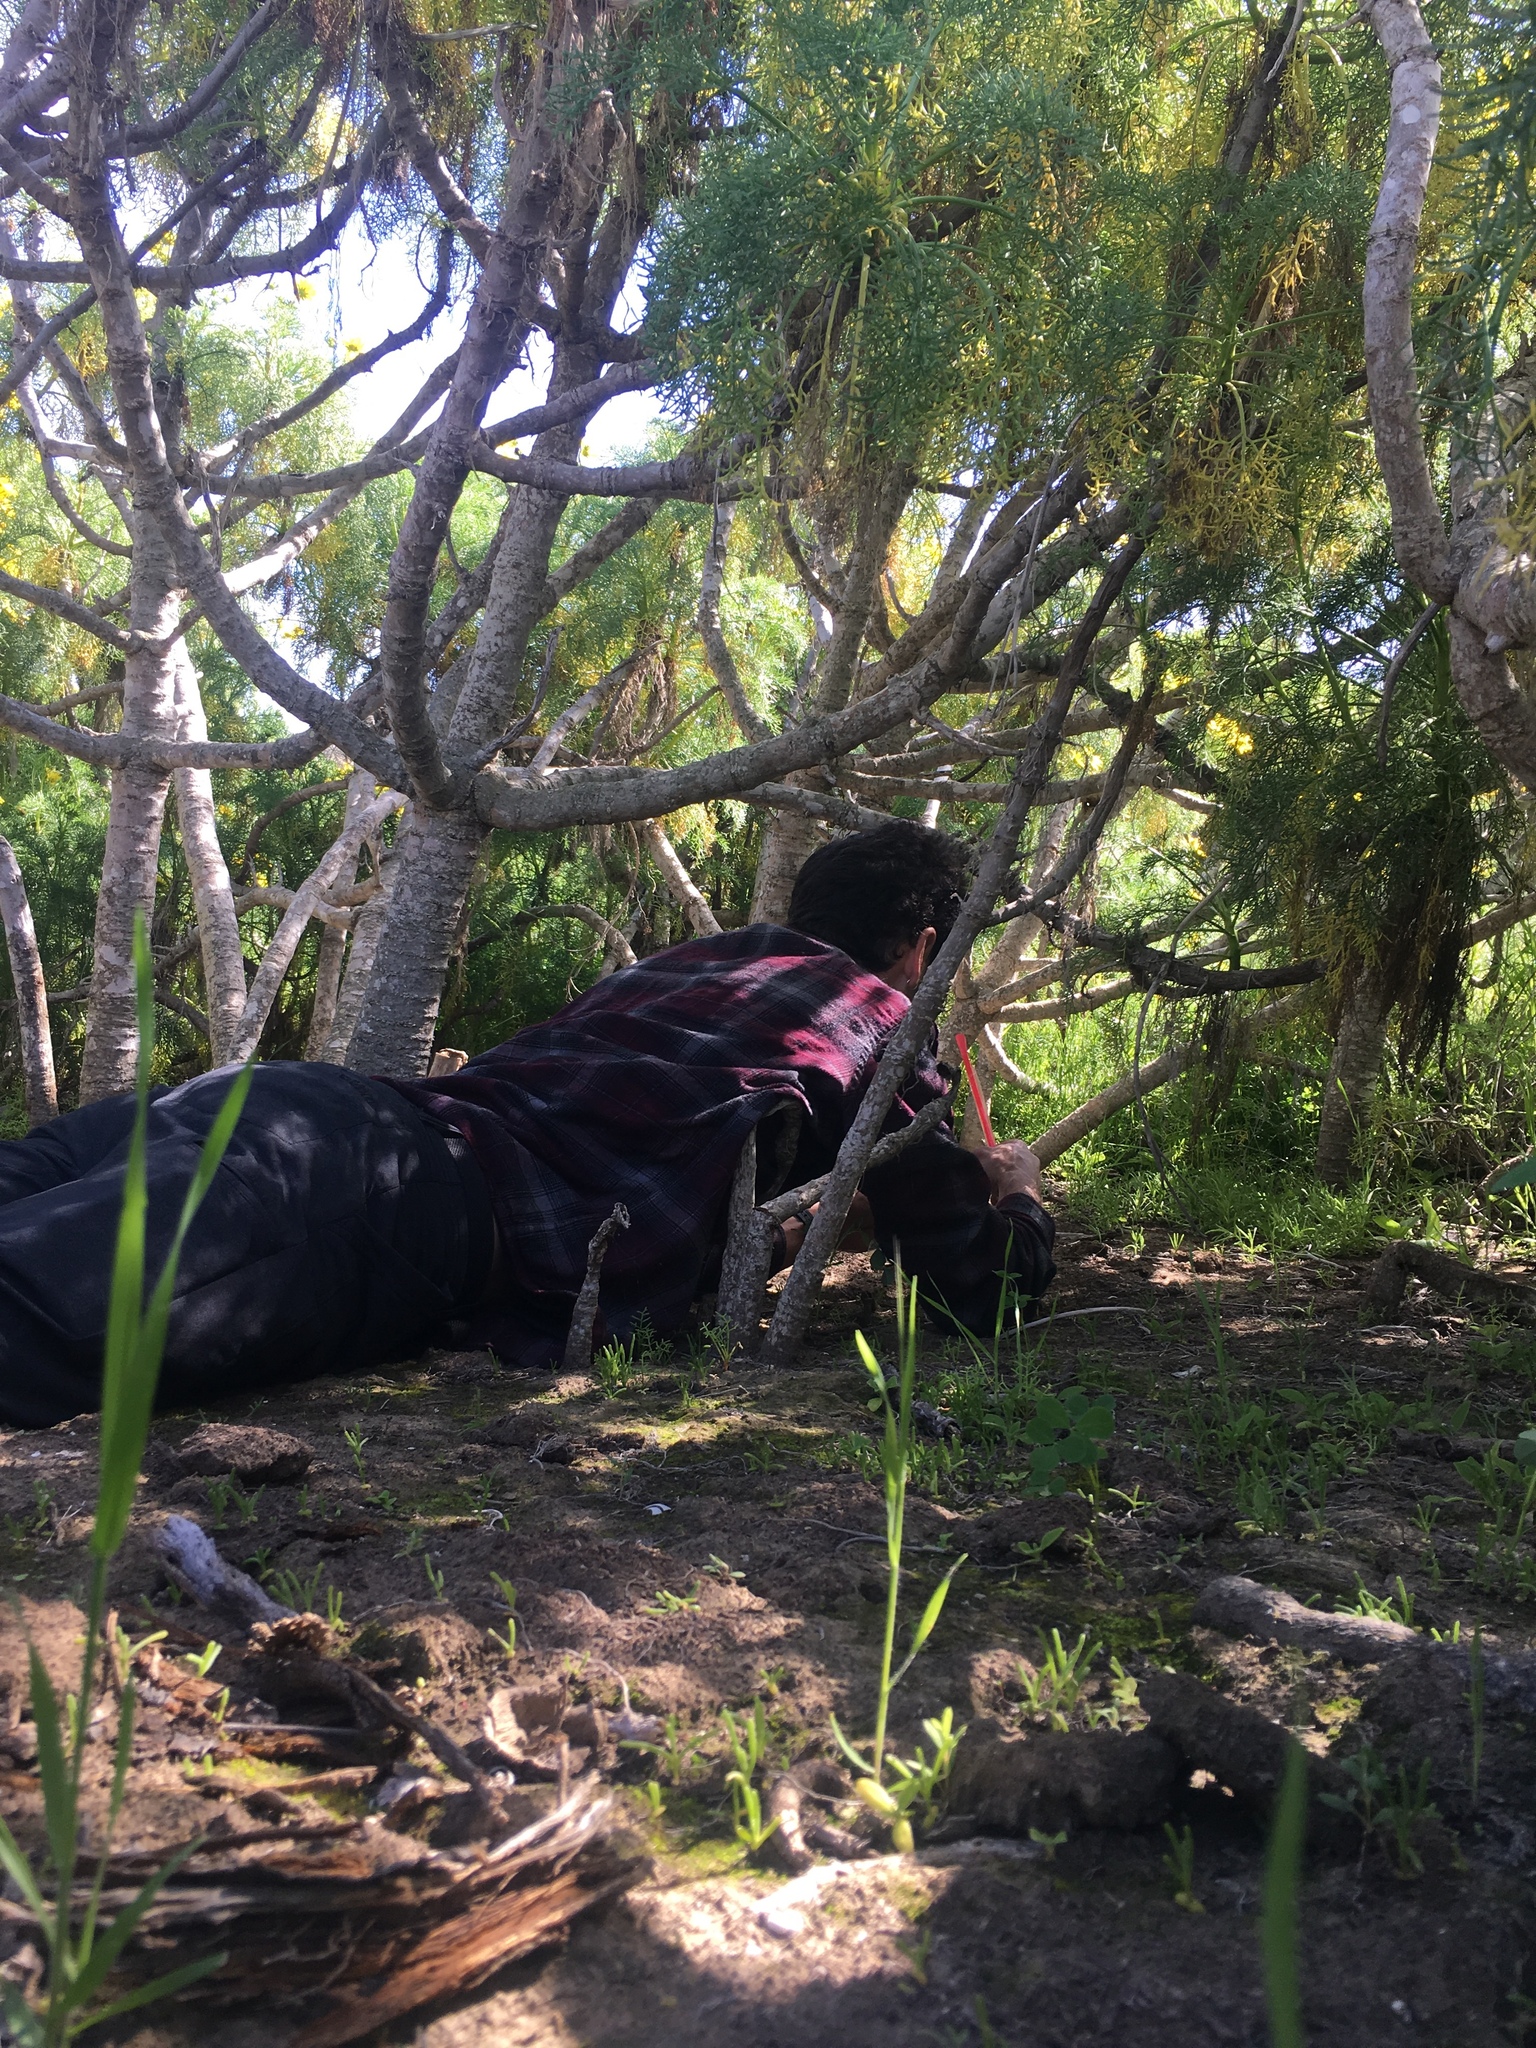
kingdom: Plantae
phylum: Tracheophyta
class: Magnoliopsida
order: Asterales
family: Asteraceae
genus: Coreopsis
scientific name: Coreopsis gigantea
